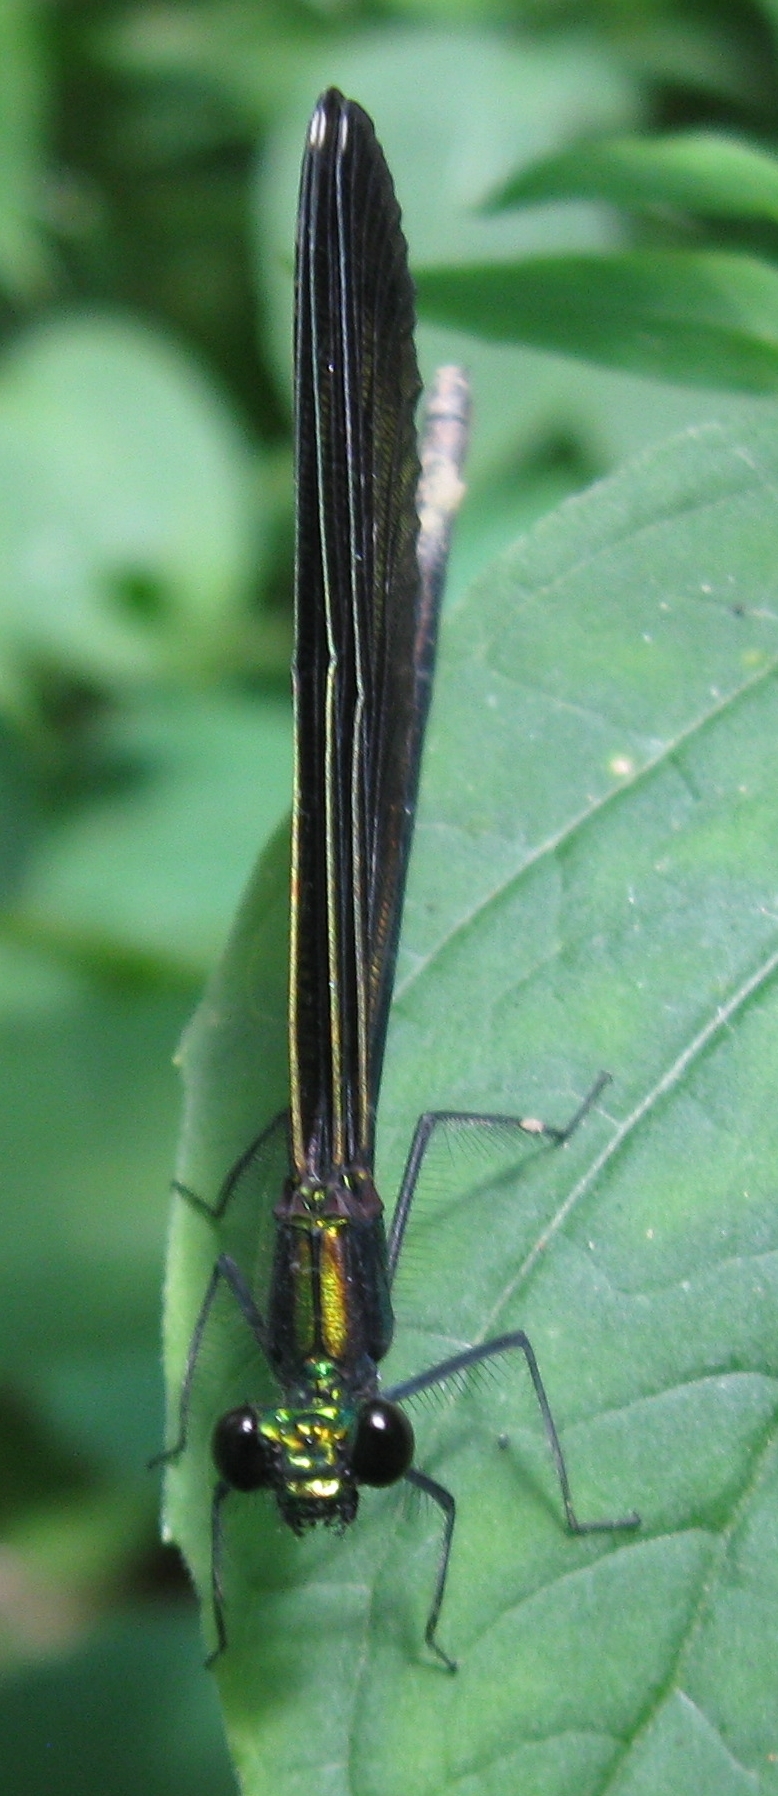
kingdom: Animalia
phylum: Arthropoda
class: Insecta
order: Odonata
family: Calopterygidae
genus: Calopteryx
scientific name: Calopteryx maculata
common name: Ebony jewelwing
